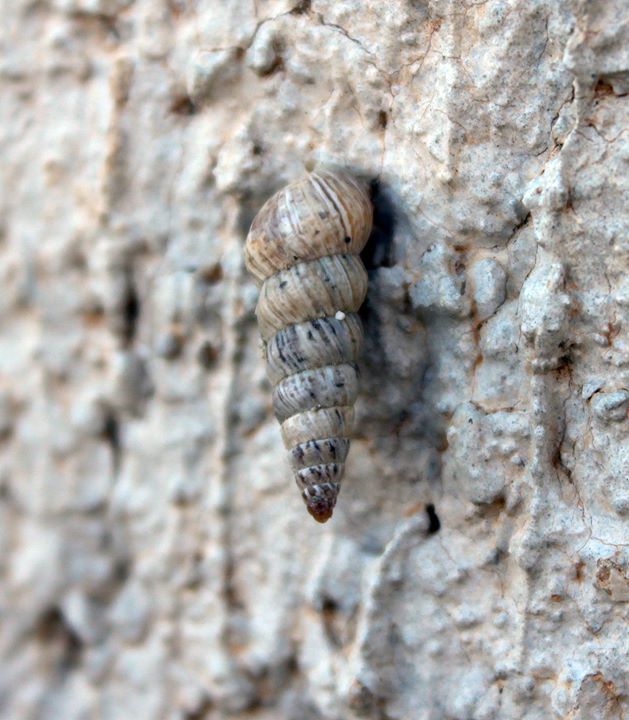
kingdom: Animalia
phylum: Mollusca
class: Gastropoda
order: Stylommatophora
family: Geomitridae
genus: Cochlicella
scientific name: Cochlicella acuta
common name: Pointed snail
